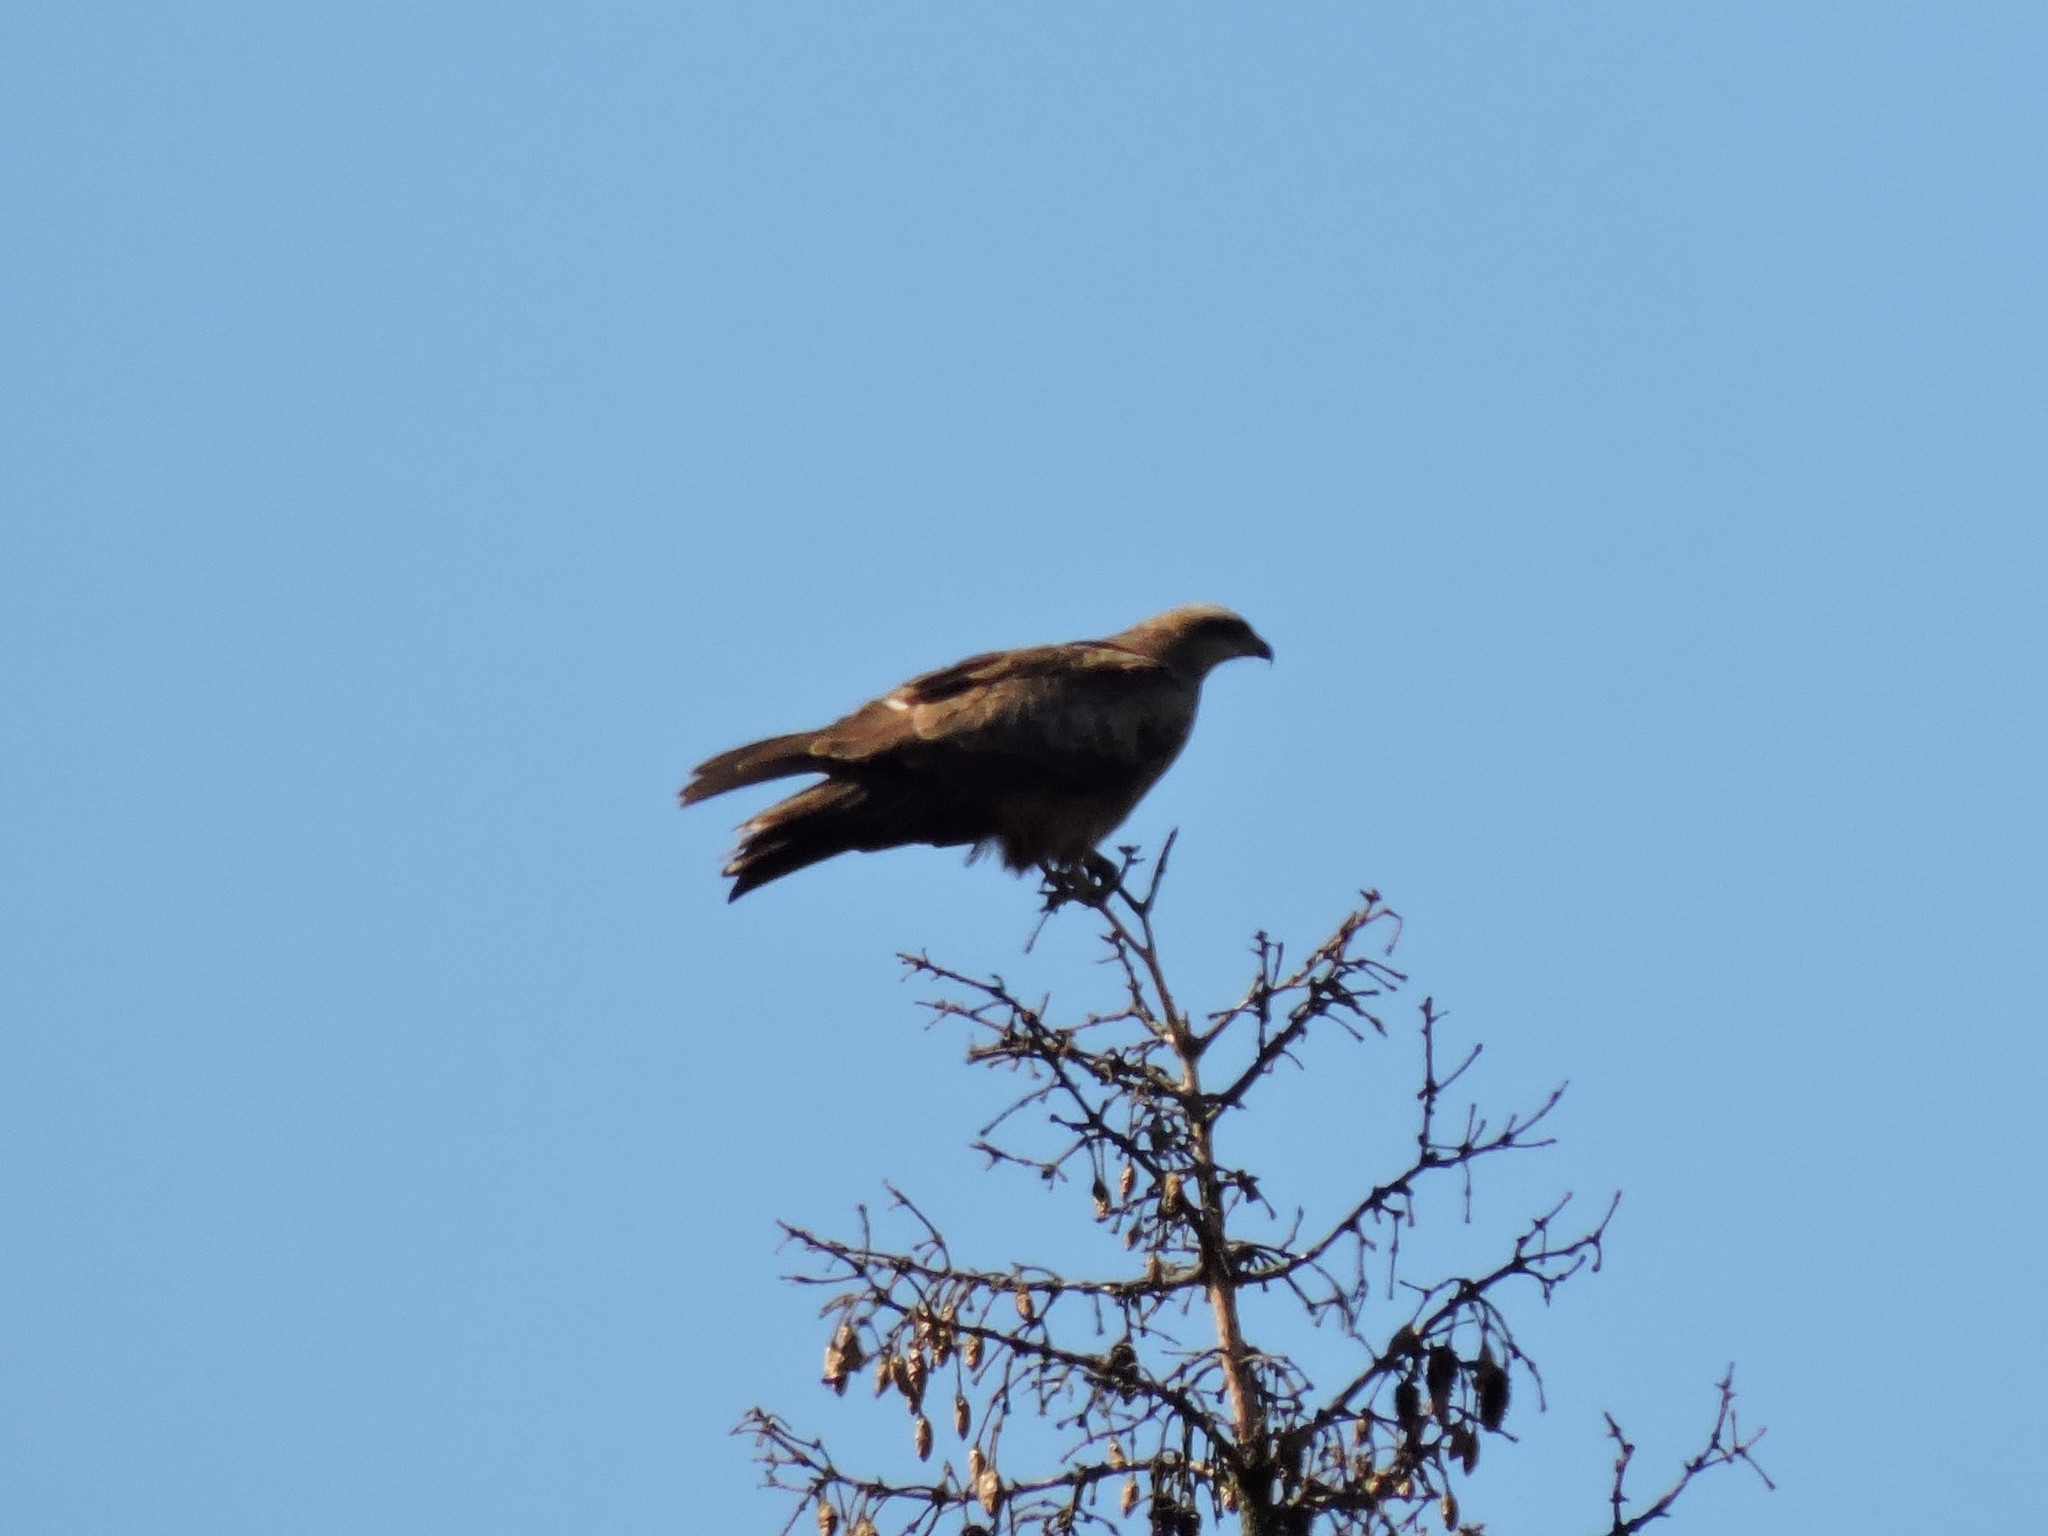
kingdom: Animalia
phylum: Chordata
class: Aves
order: Accipitriformes
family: Accipitridae
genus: Milvus
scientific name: Milvus migrans
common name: Black kite
